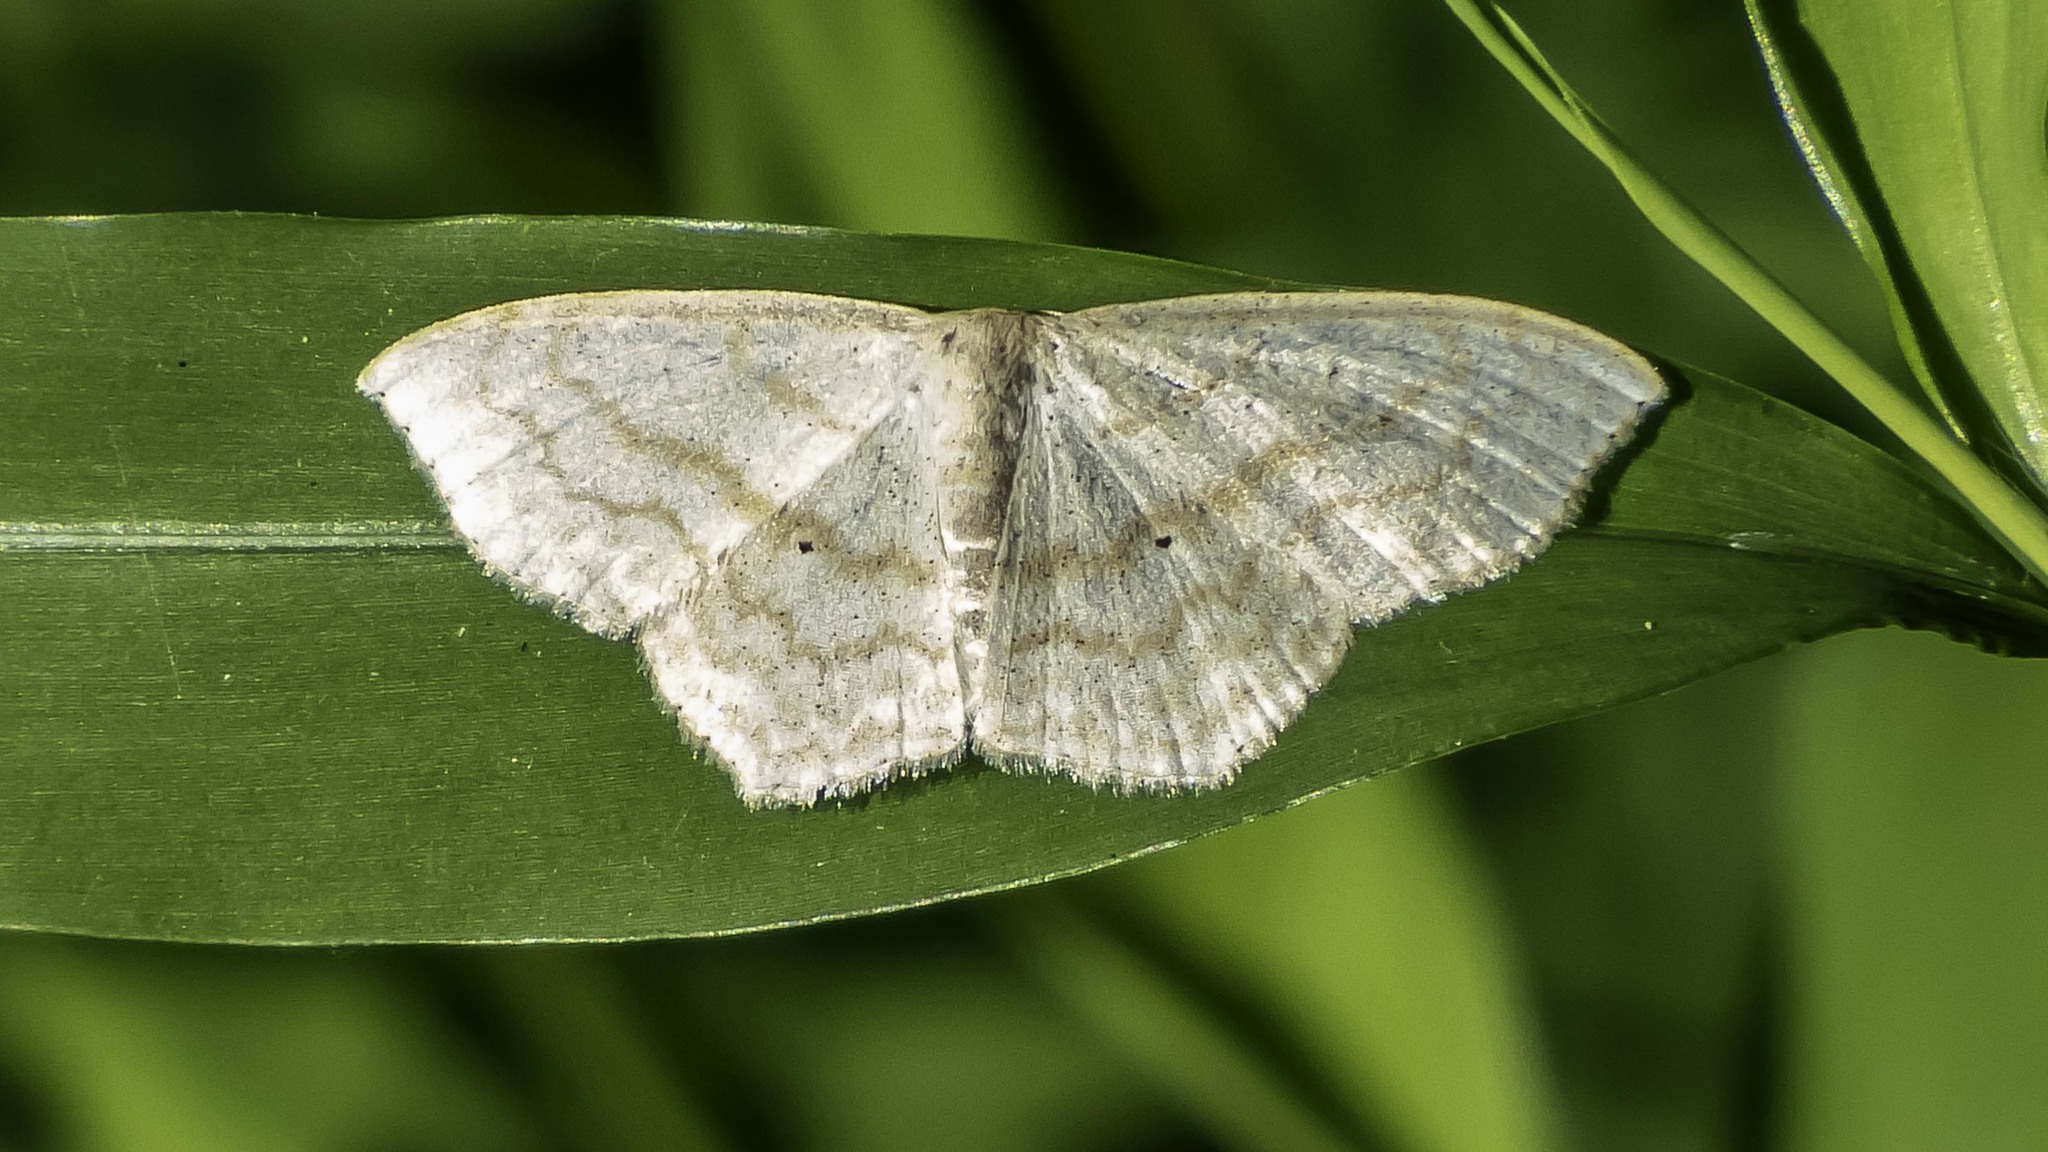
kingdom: Animalia
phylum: Arthropoda
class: Insecta
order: Lepidoptera
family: Geometridae
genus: Scopula
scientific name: Scopula limboundata
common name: Large lace border
